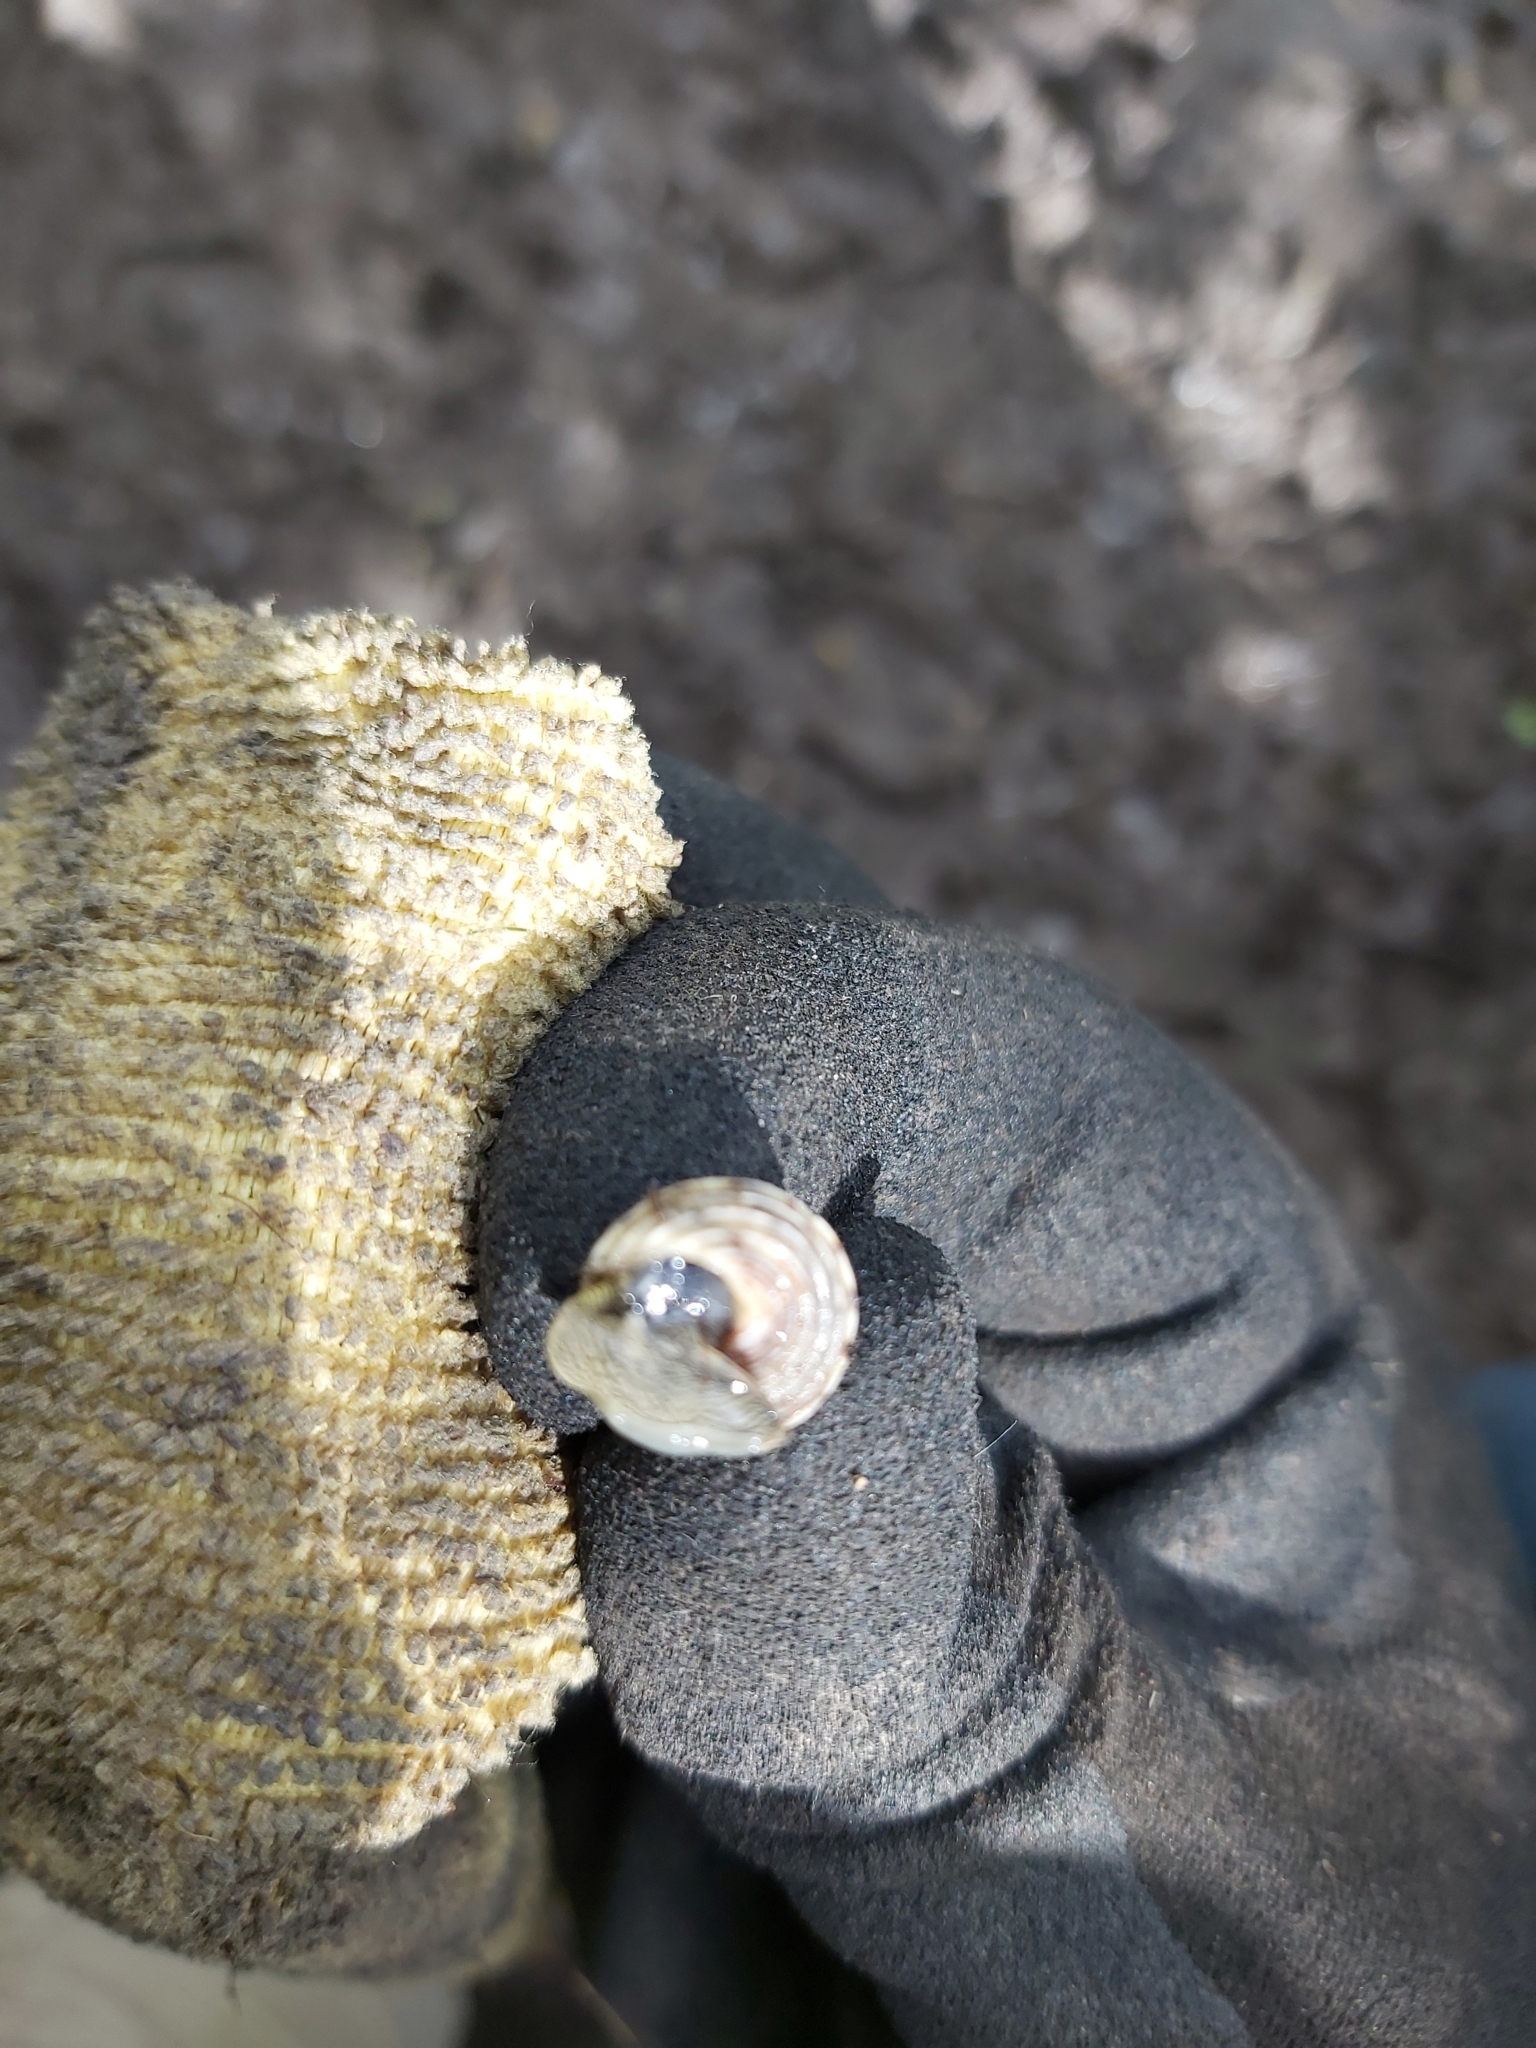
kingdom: Animalia
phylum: Mollusca
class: Gastropoda
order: Littorinimorpha
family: Littorinidae
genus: Littoraria
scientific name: Littoraria filosa
